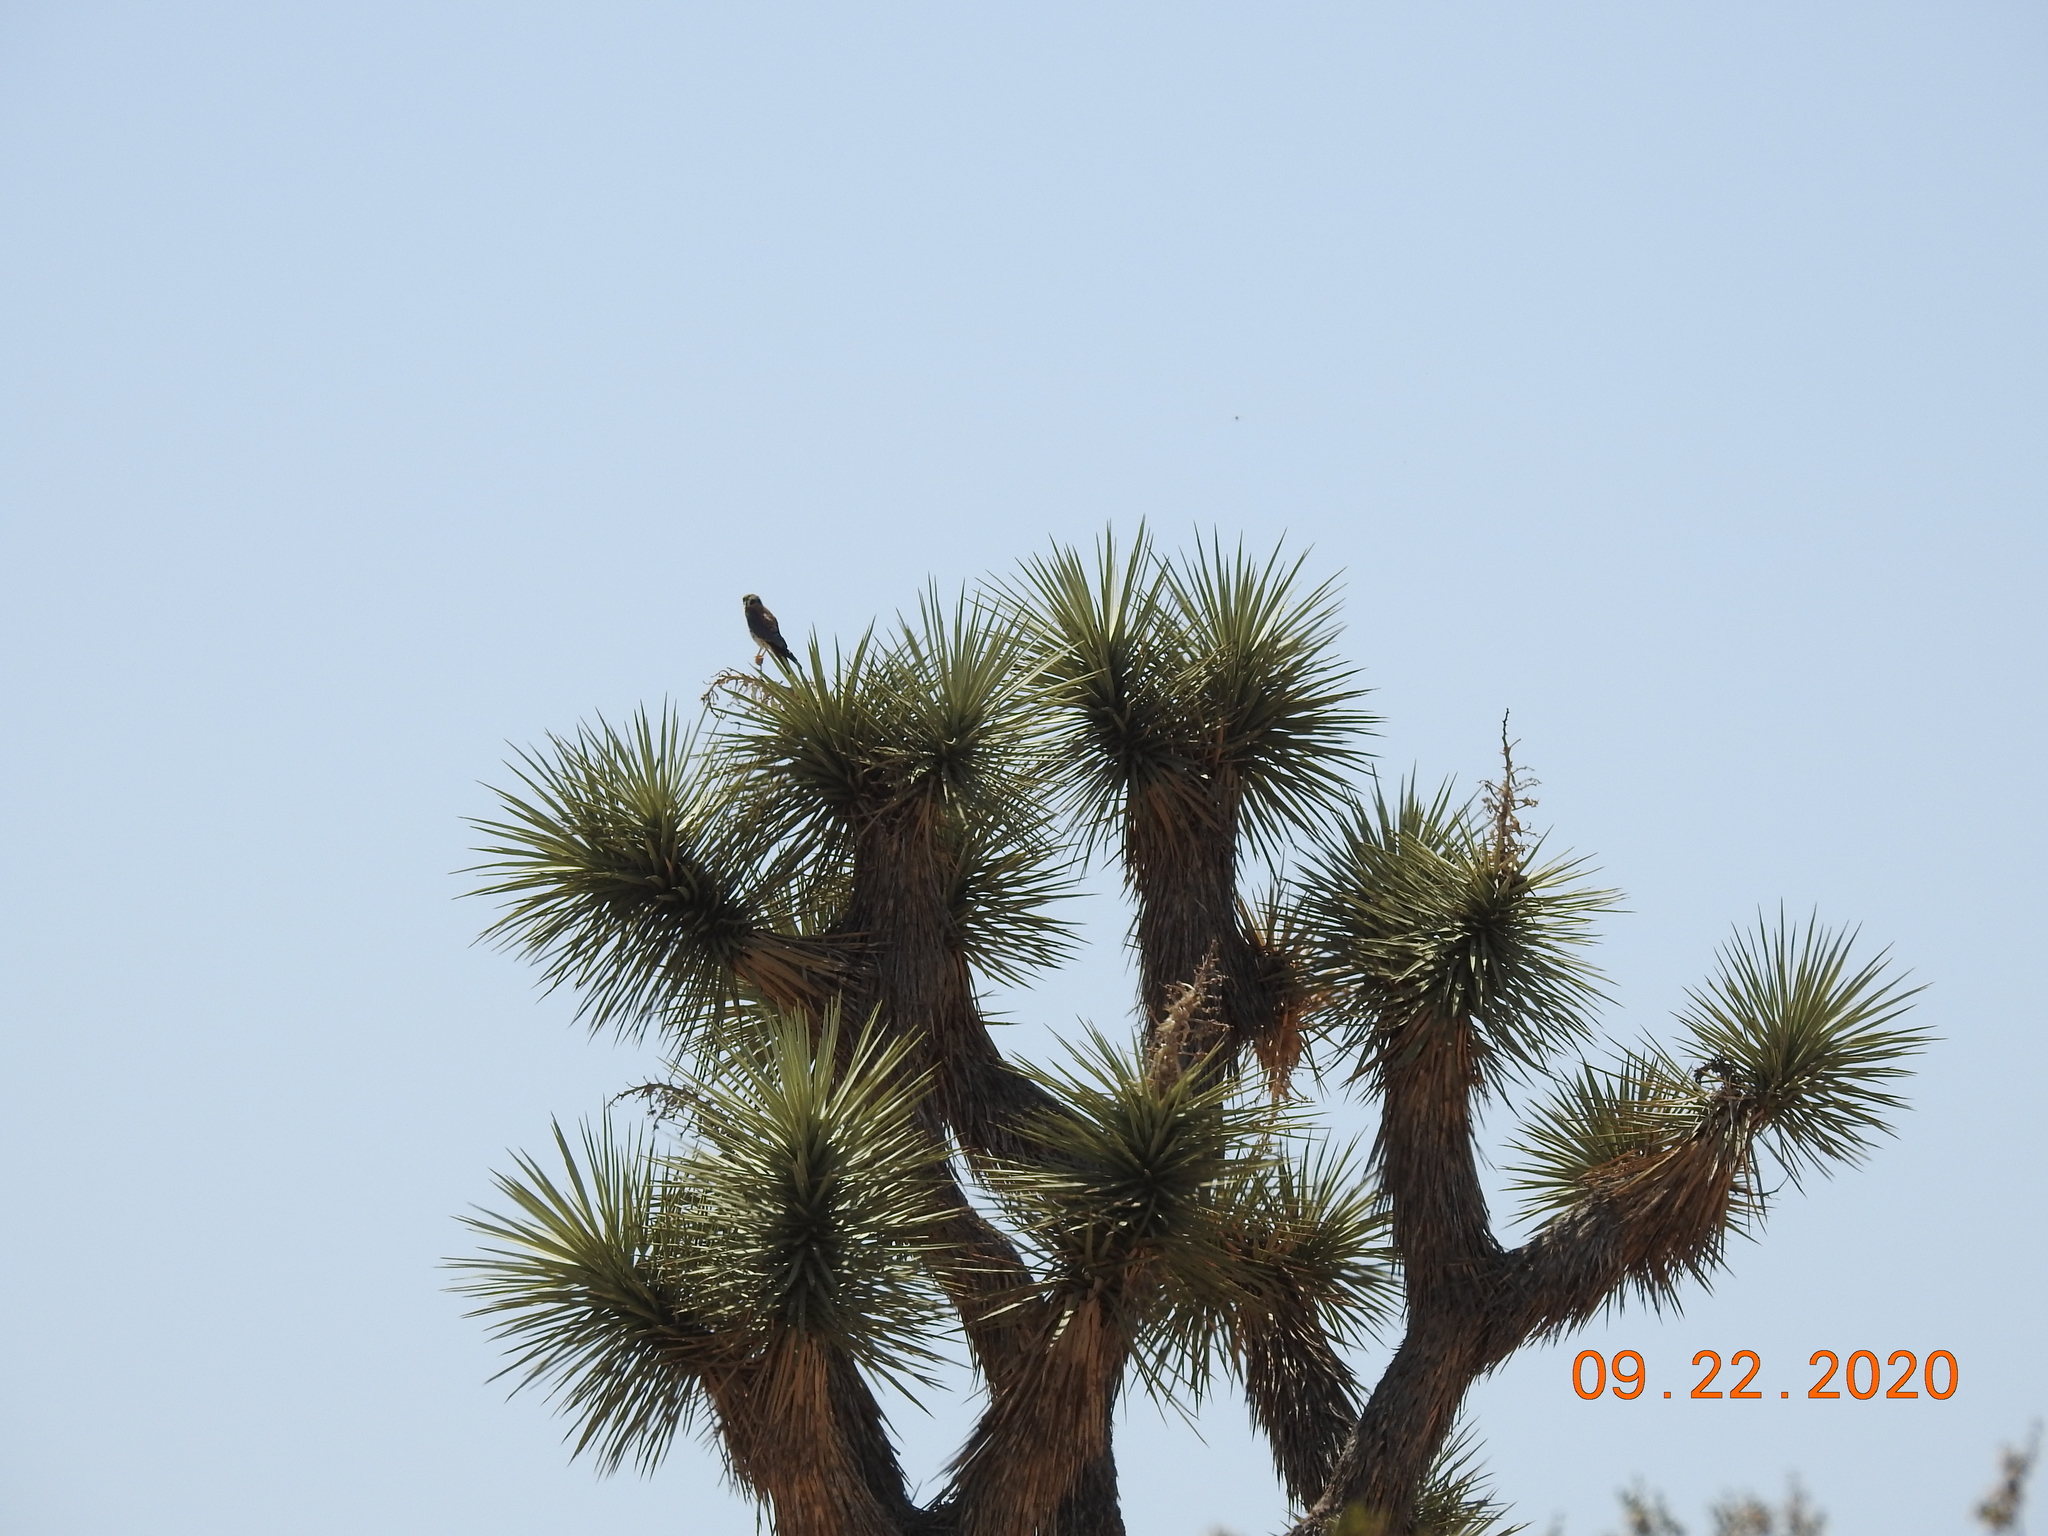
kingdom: Animalia
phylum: Chordata
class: Aves
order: Falconiformes
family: Falconidae
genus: Falco
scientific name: Falco sparverius
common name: American kestrel
